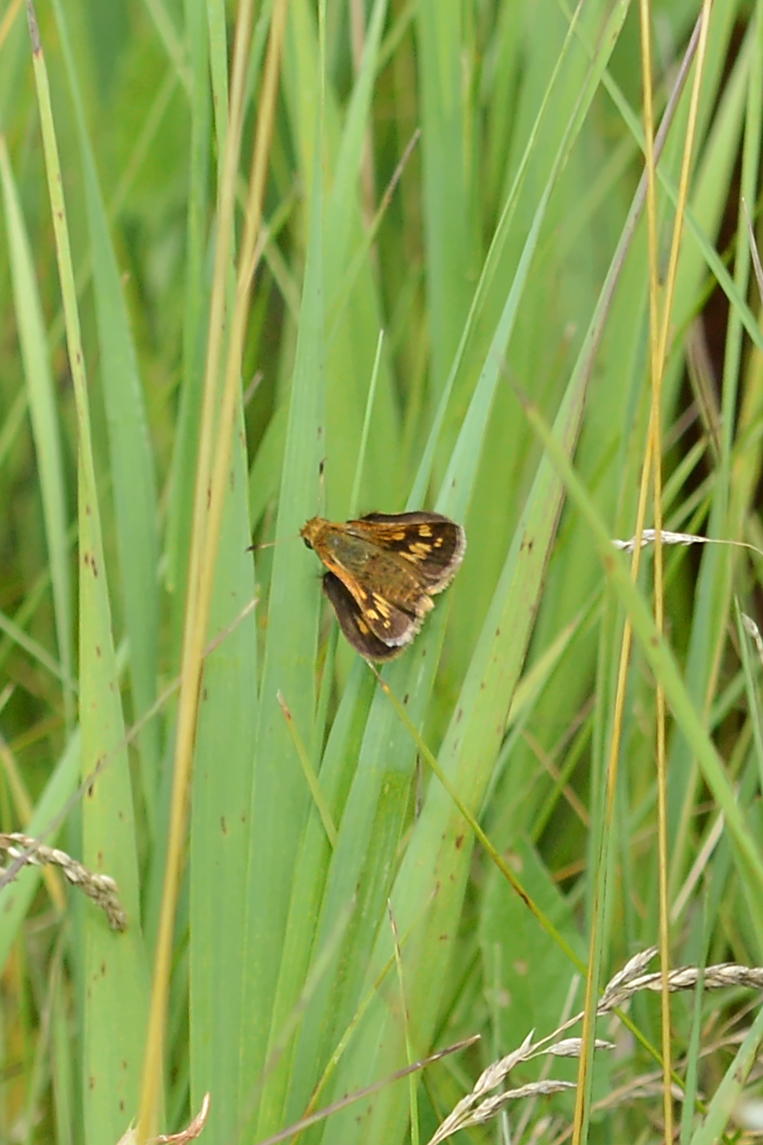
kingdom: Animalia
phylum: Arthropoda
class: Insecta
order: Lepidoptera
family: Hesperiidae
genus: Polites
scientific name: Polites mystic
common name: Long dash
